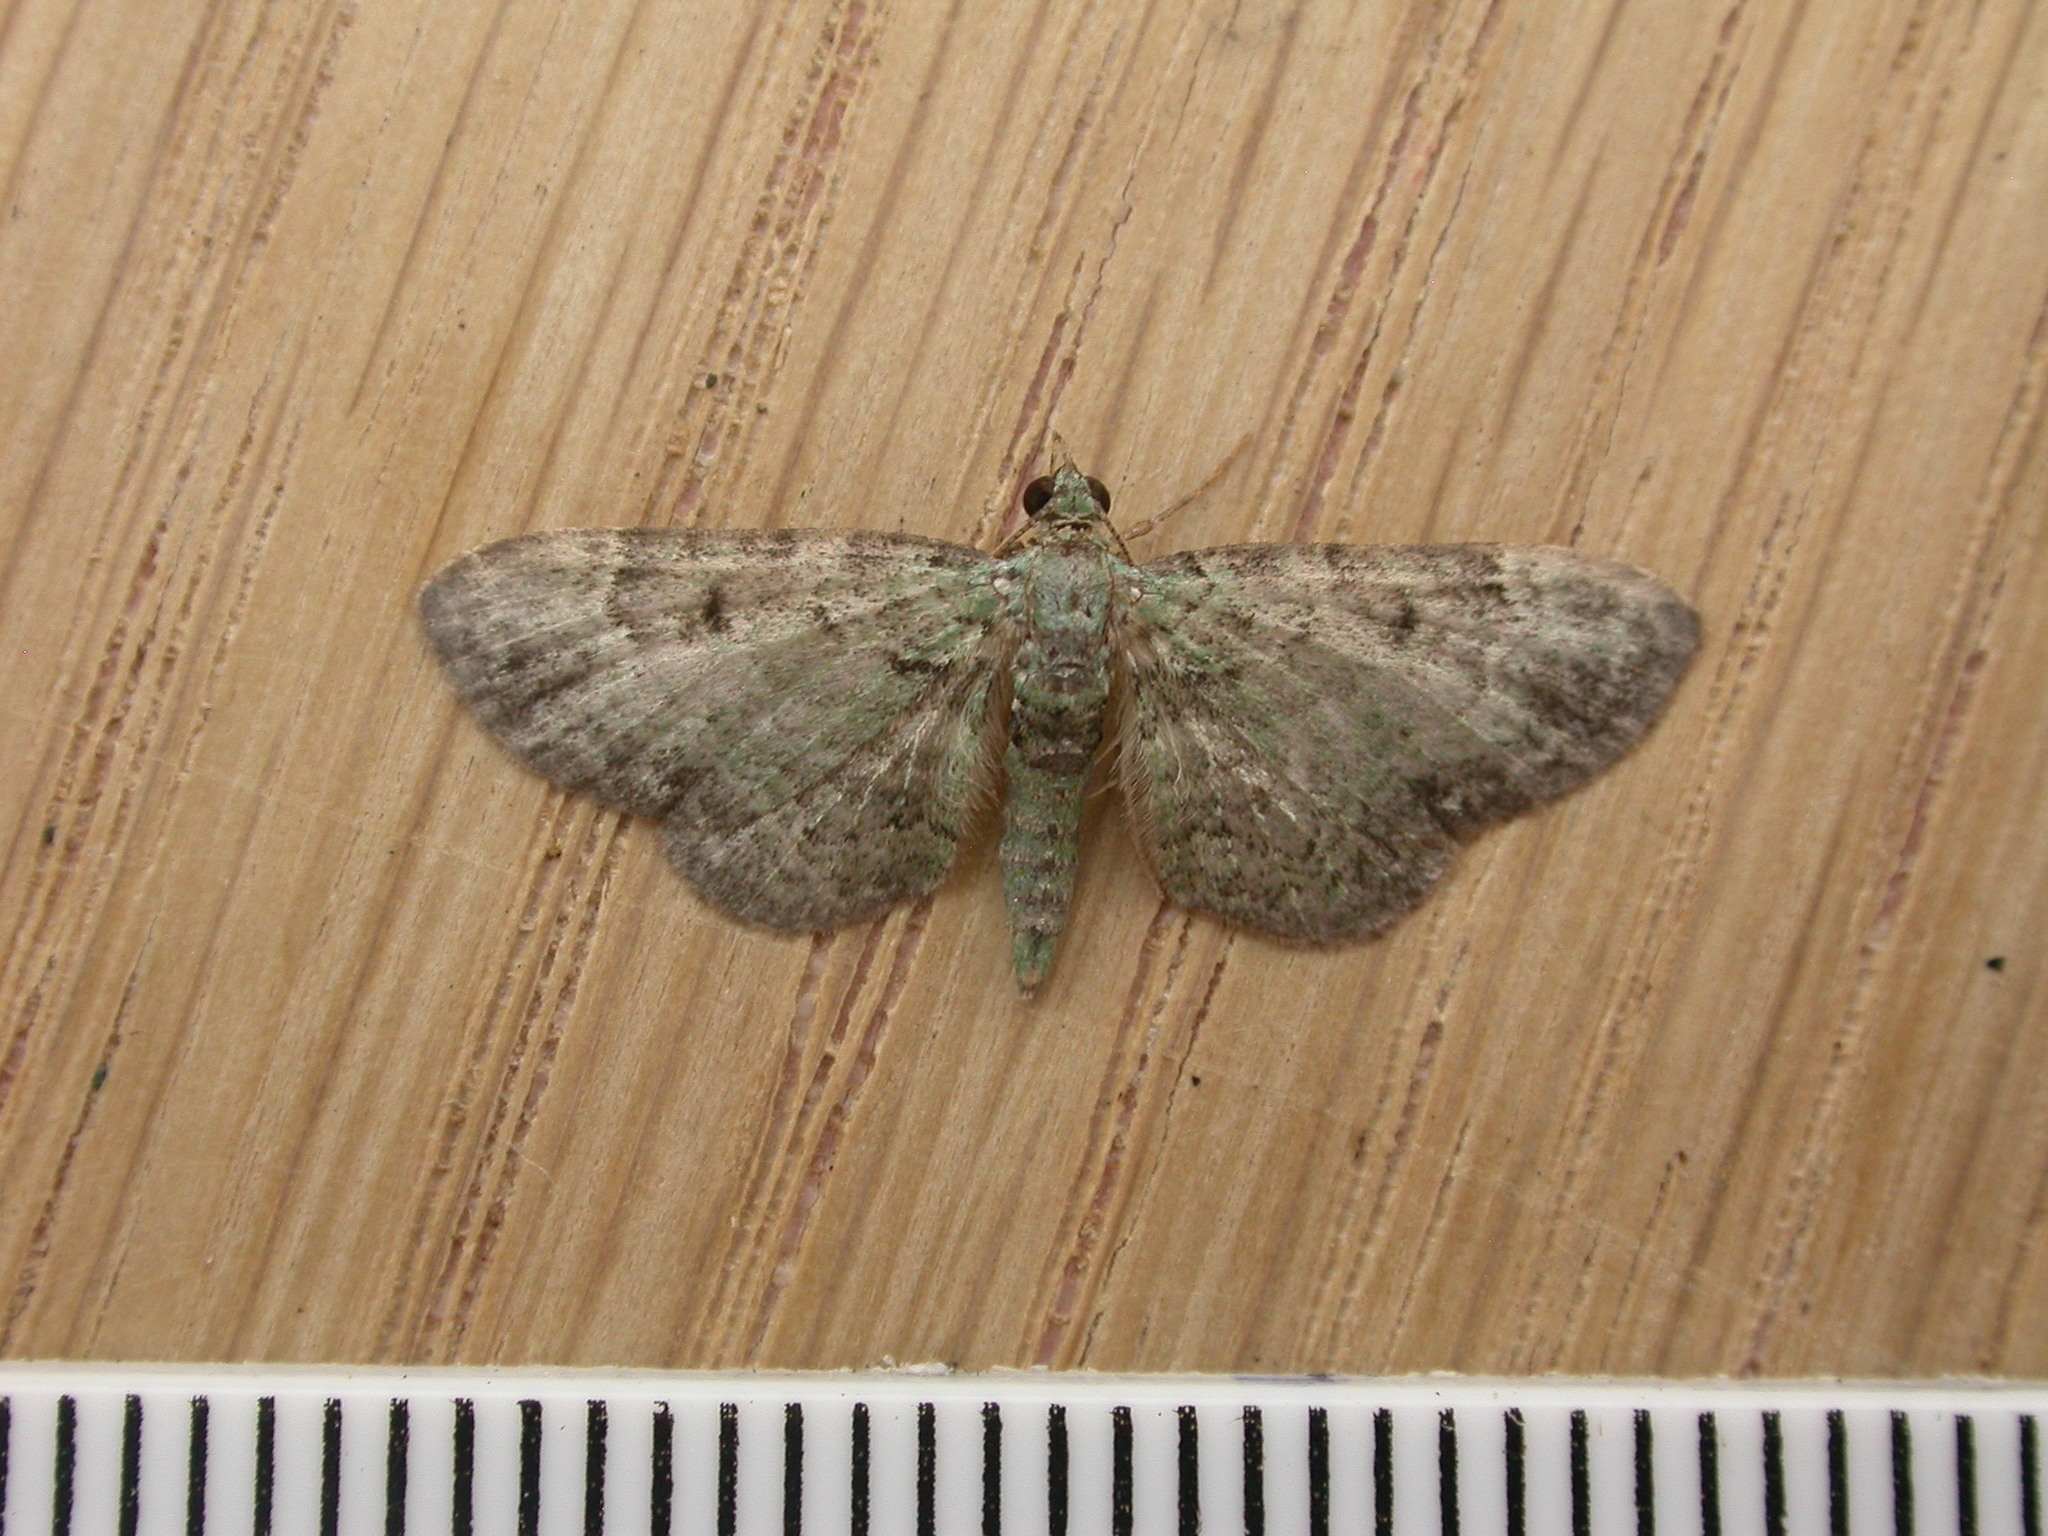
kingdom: Animalia
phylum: Arthropoda
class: Insecta
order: Lepidoptera
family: Geometridae
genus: Pasiphila
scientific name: Pasiphila rectangulata
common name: Green pug
